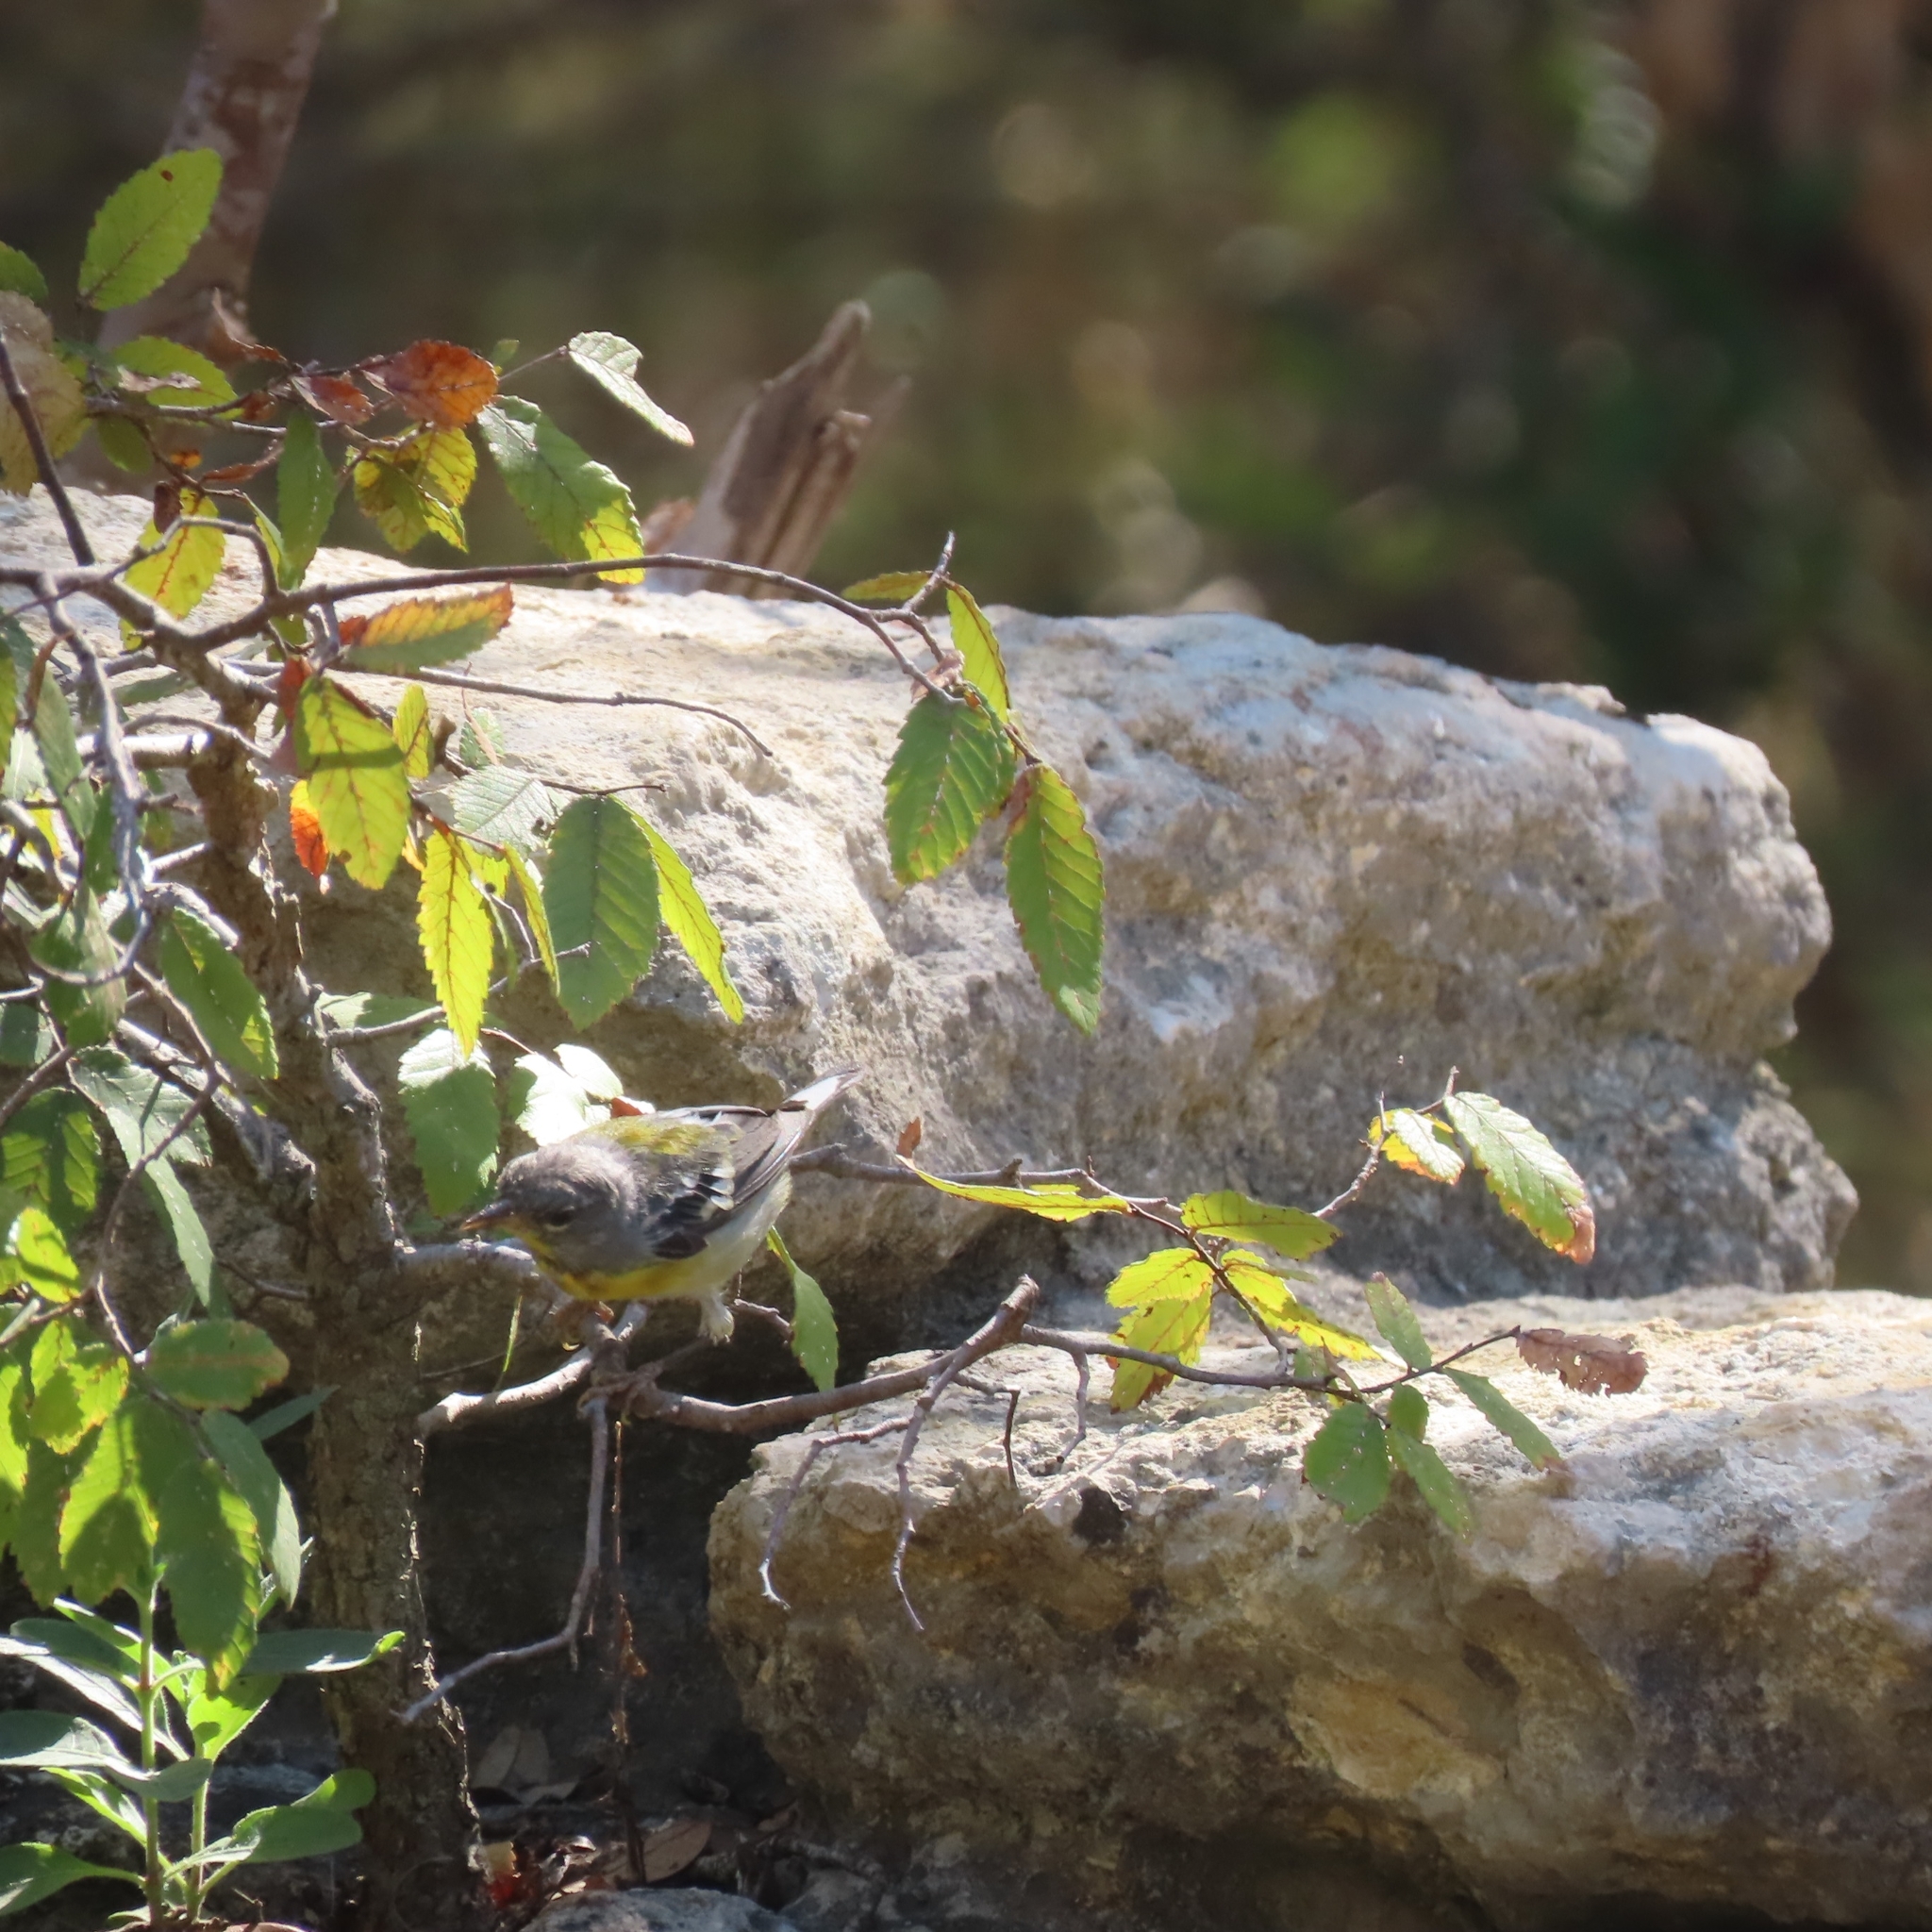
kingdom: Animalia
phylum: Chordata
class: Aves
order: Passeriformes
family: Parulidae
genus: Setophaga
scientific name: Setophaga americana
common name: Northern parula
